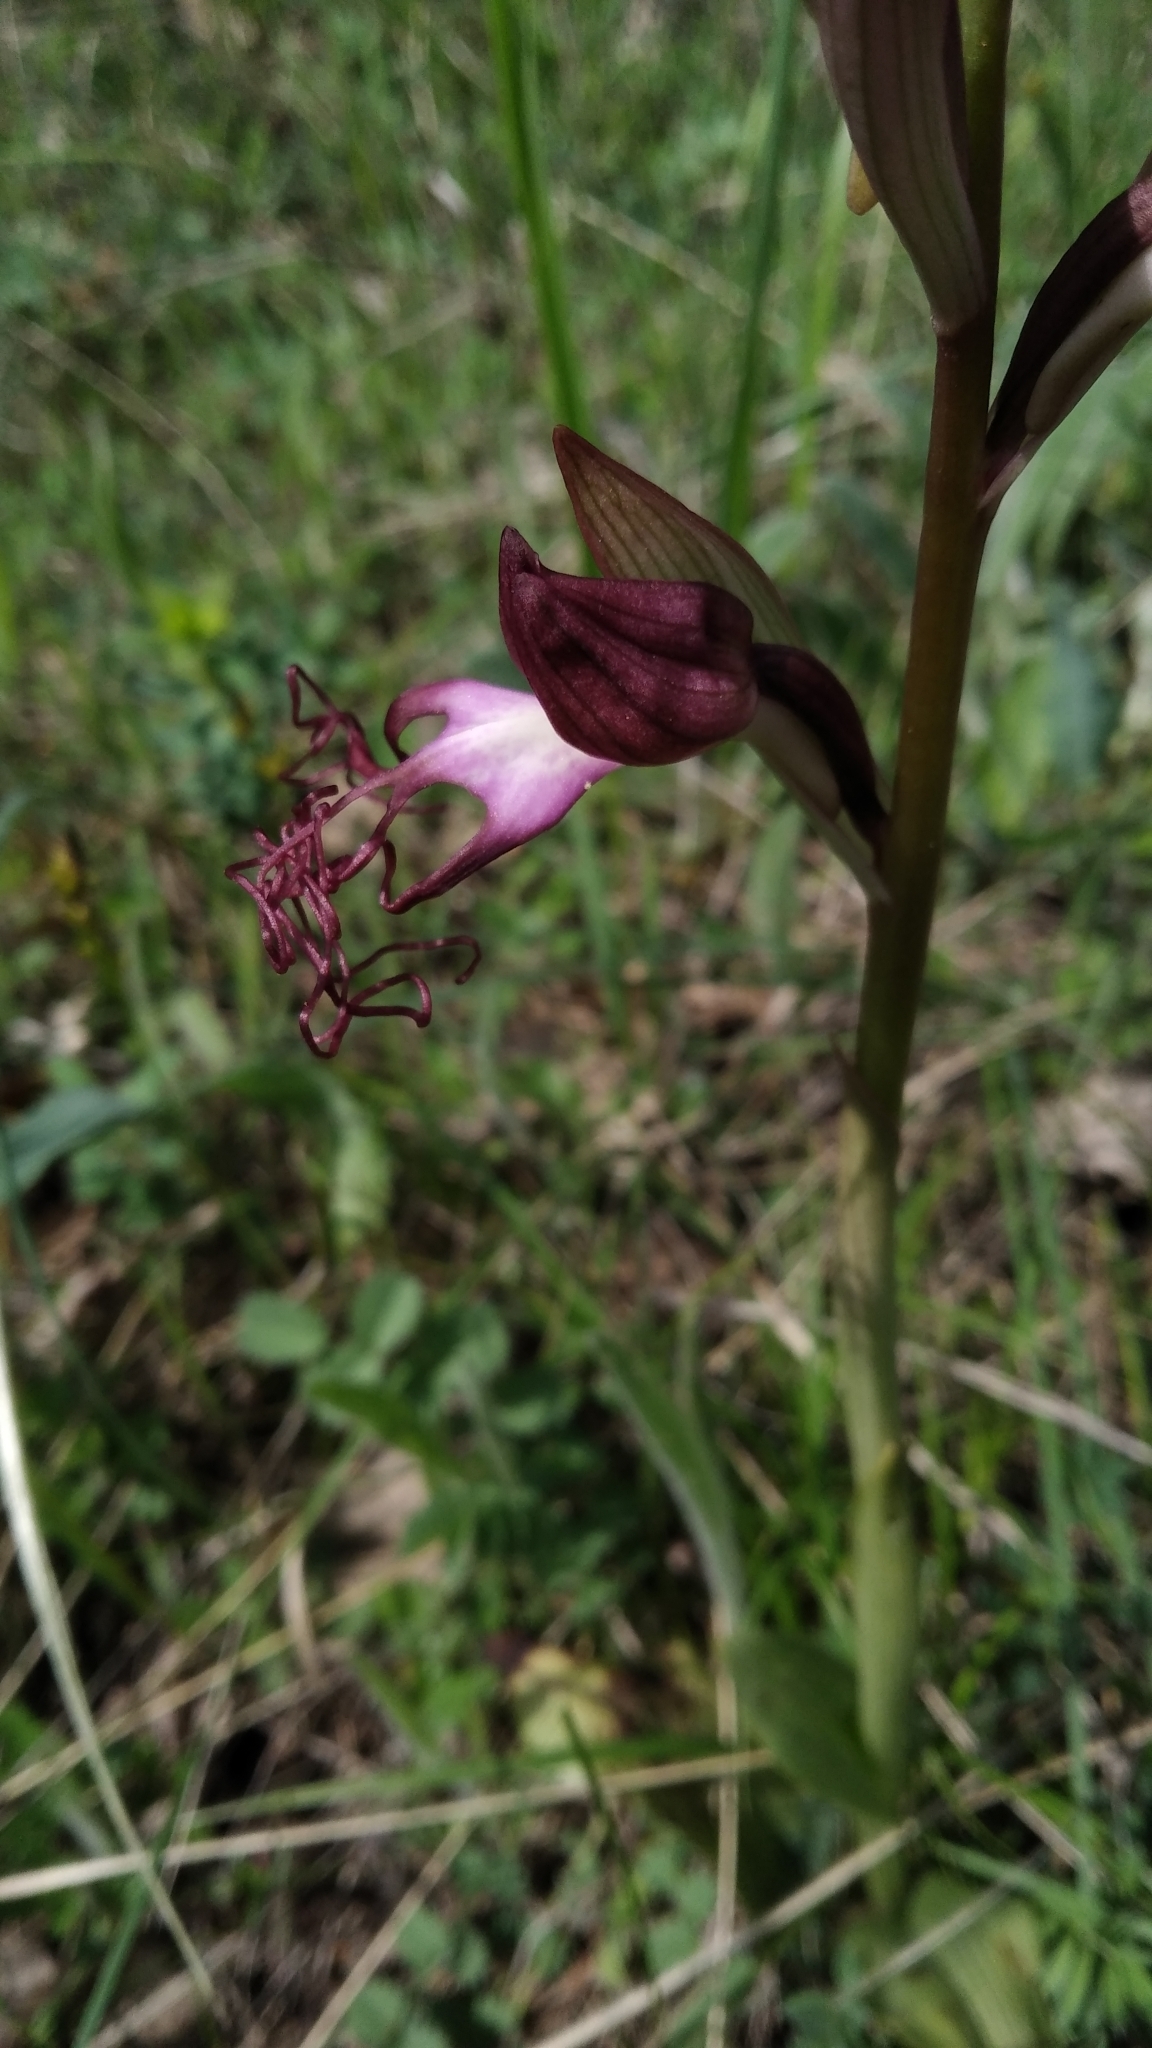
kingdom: Plantae
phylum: Tracheophyta
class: Liliopsida
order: Asparagales
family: Orchidaceae
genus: Himantoglossum
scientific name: Himantoglossum comperianum
